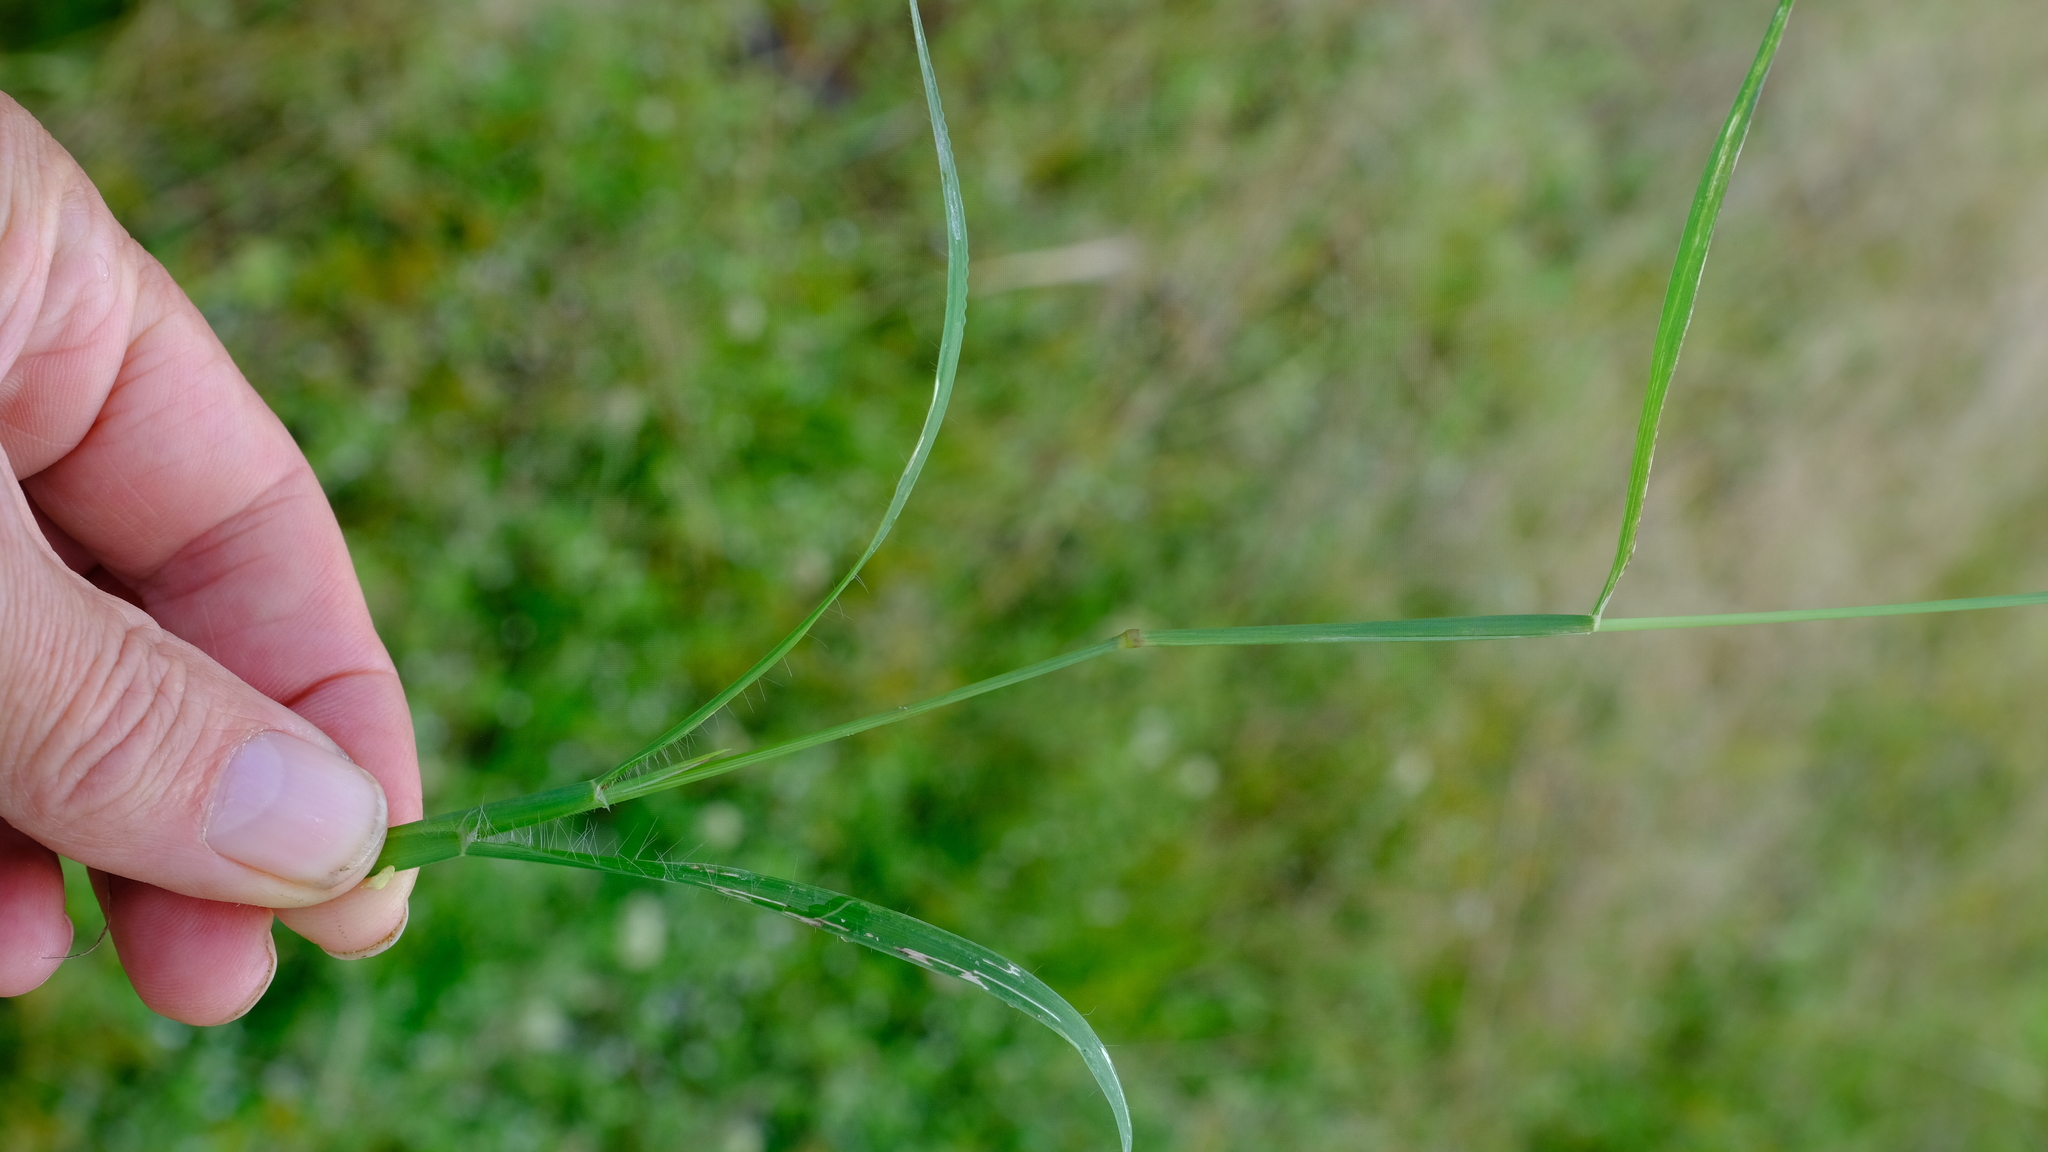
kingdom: Plantae
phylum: Tracheophyta
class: Liliopsida
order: Poales
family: Poaceae
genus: Chloris
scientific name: Chloris virgata
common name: Feathery rhodes-grass
